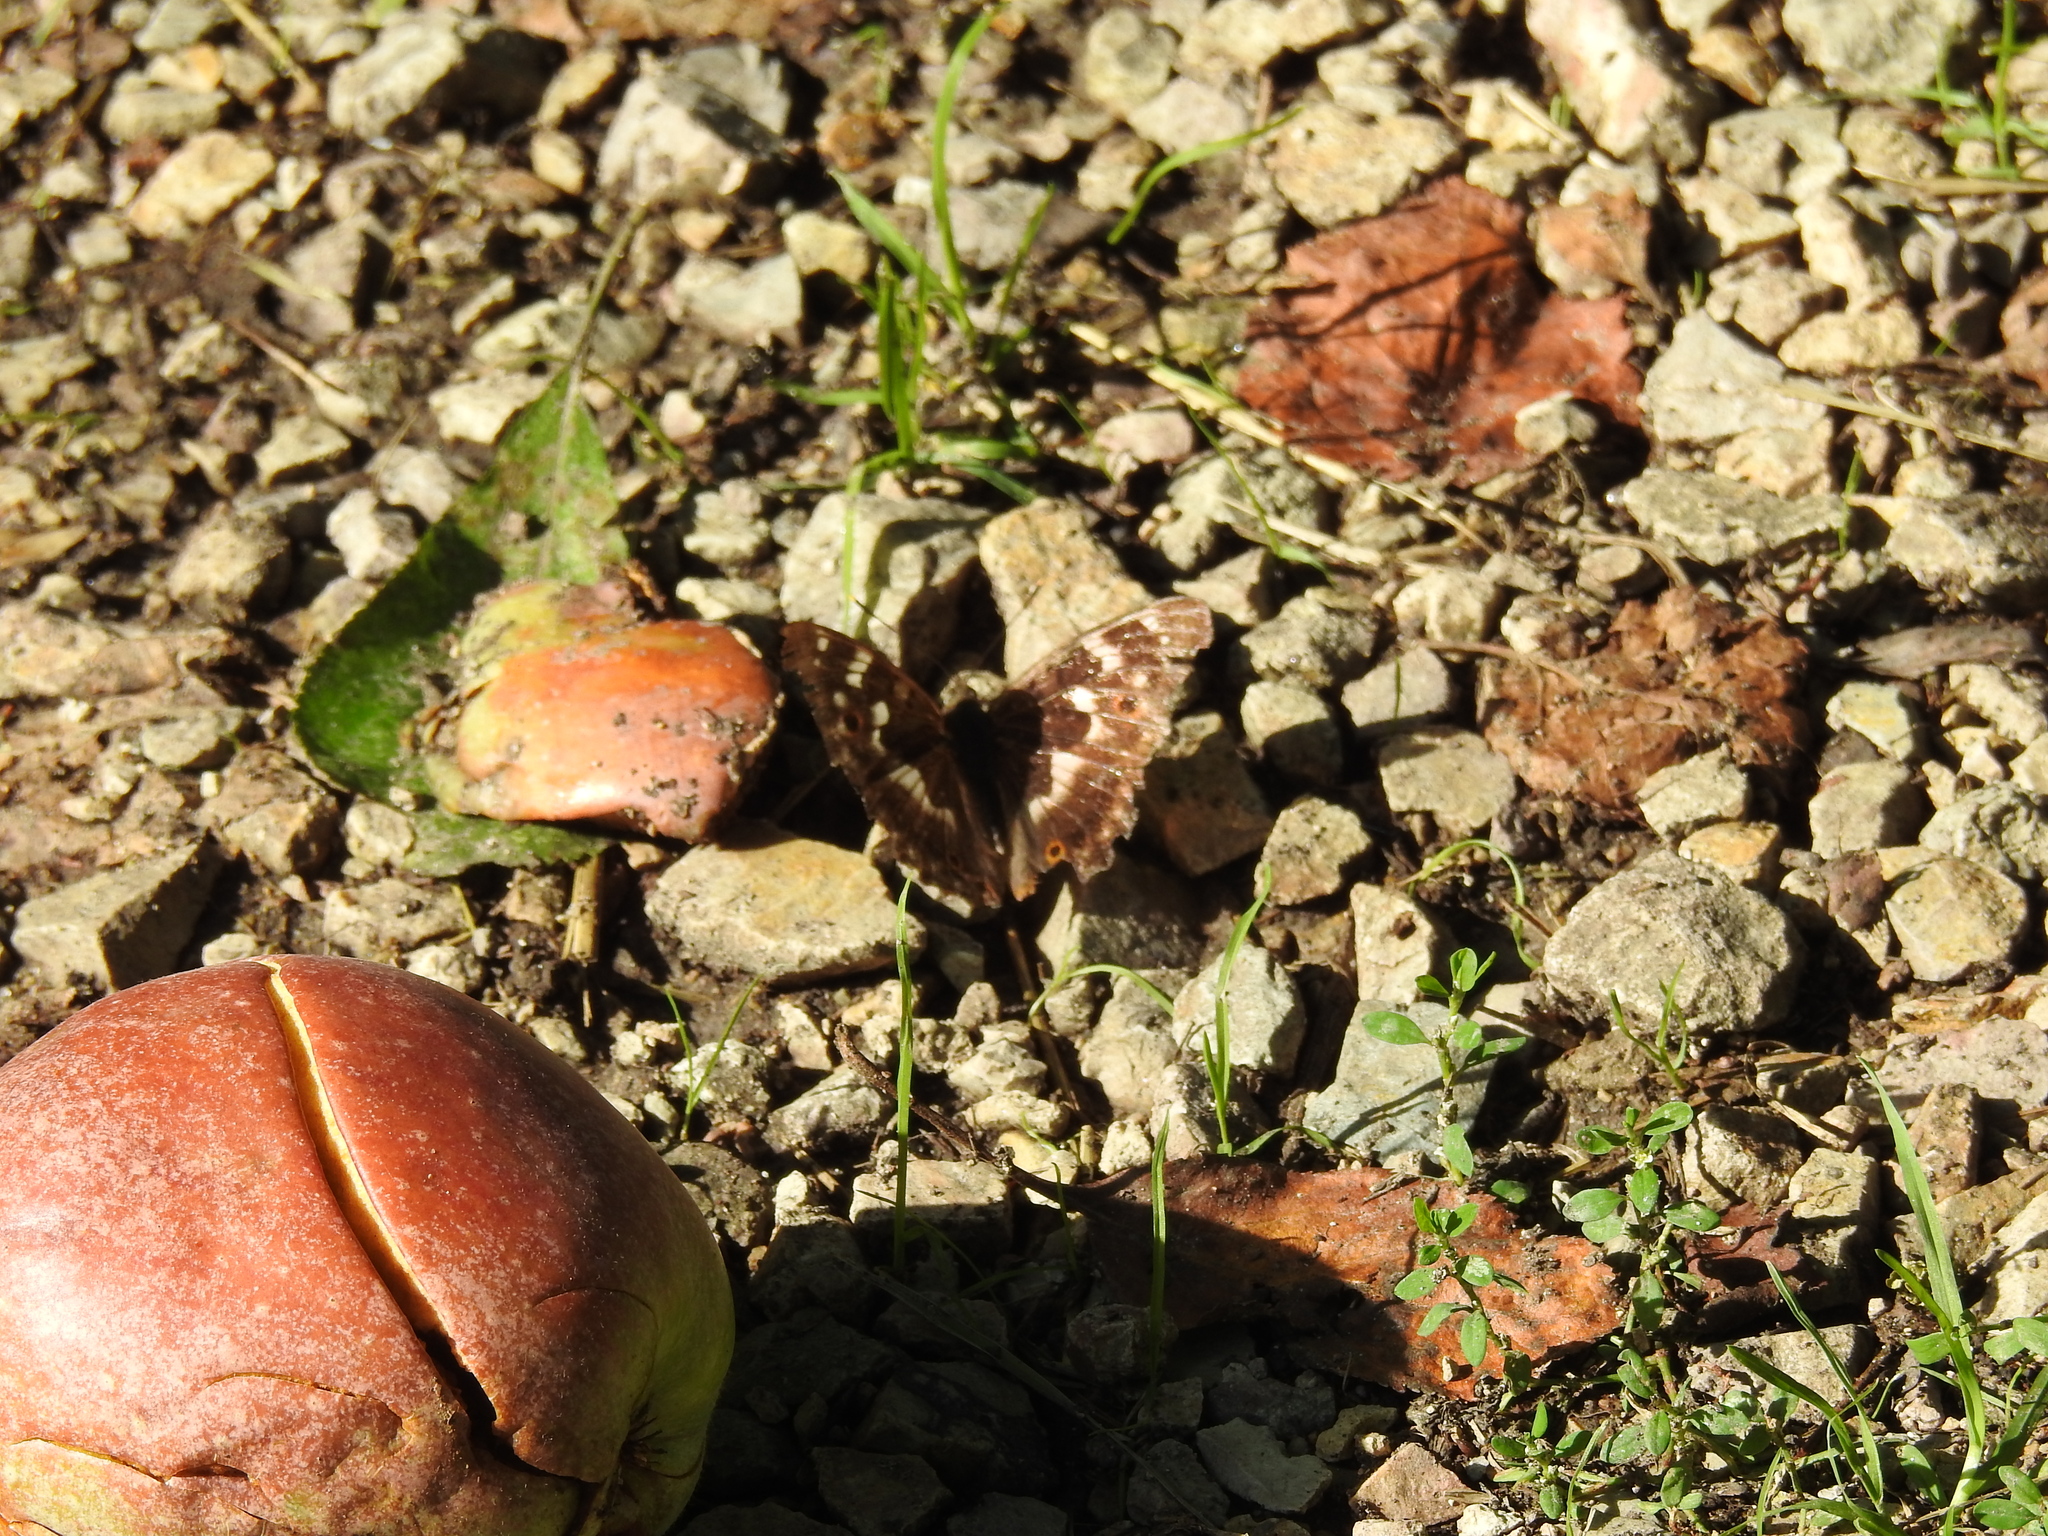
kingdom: Animalia
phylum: Arthropoda
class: Insecta
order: Lepidoptera
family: Nymphalidae
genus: Apatura
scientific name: Apatura ilia
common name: Lesser purple emperor
